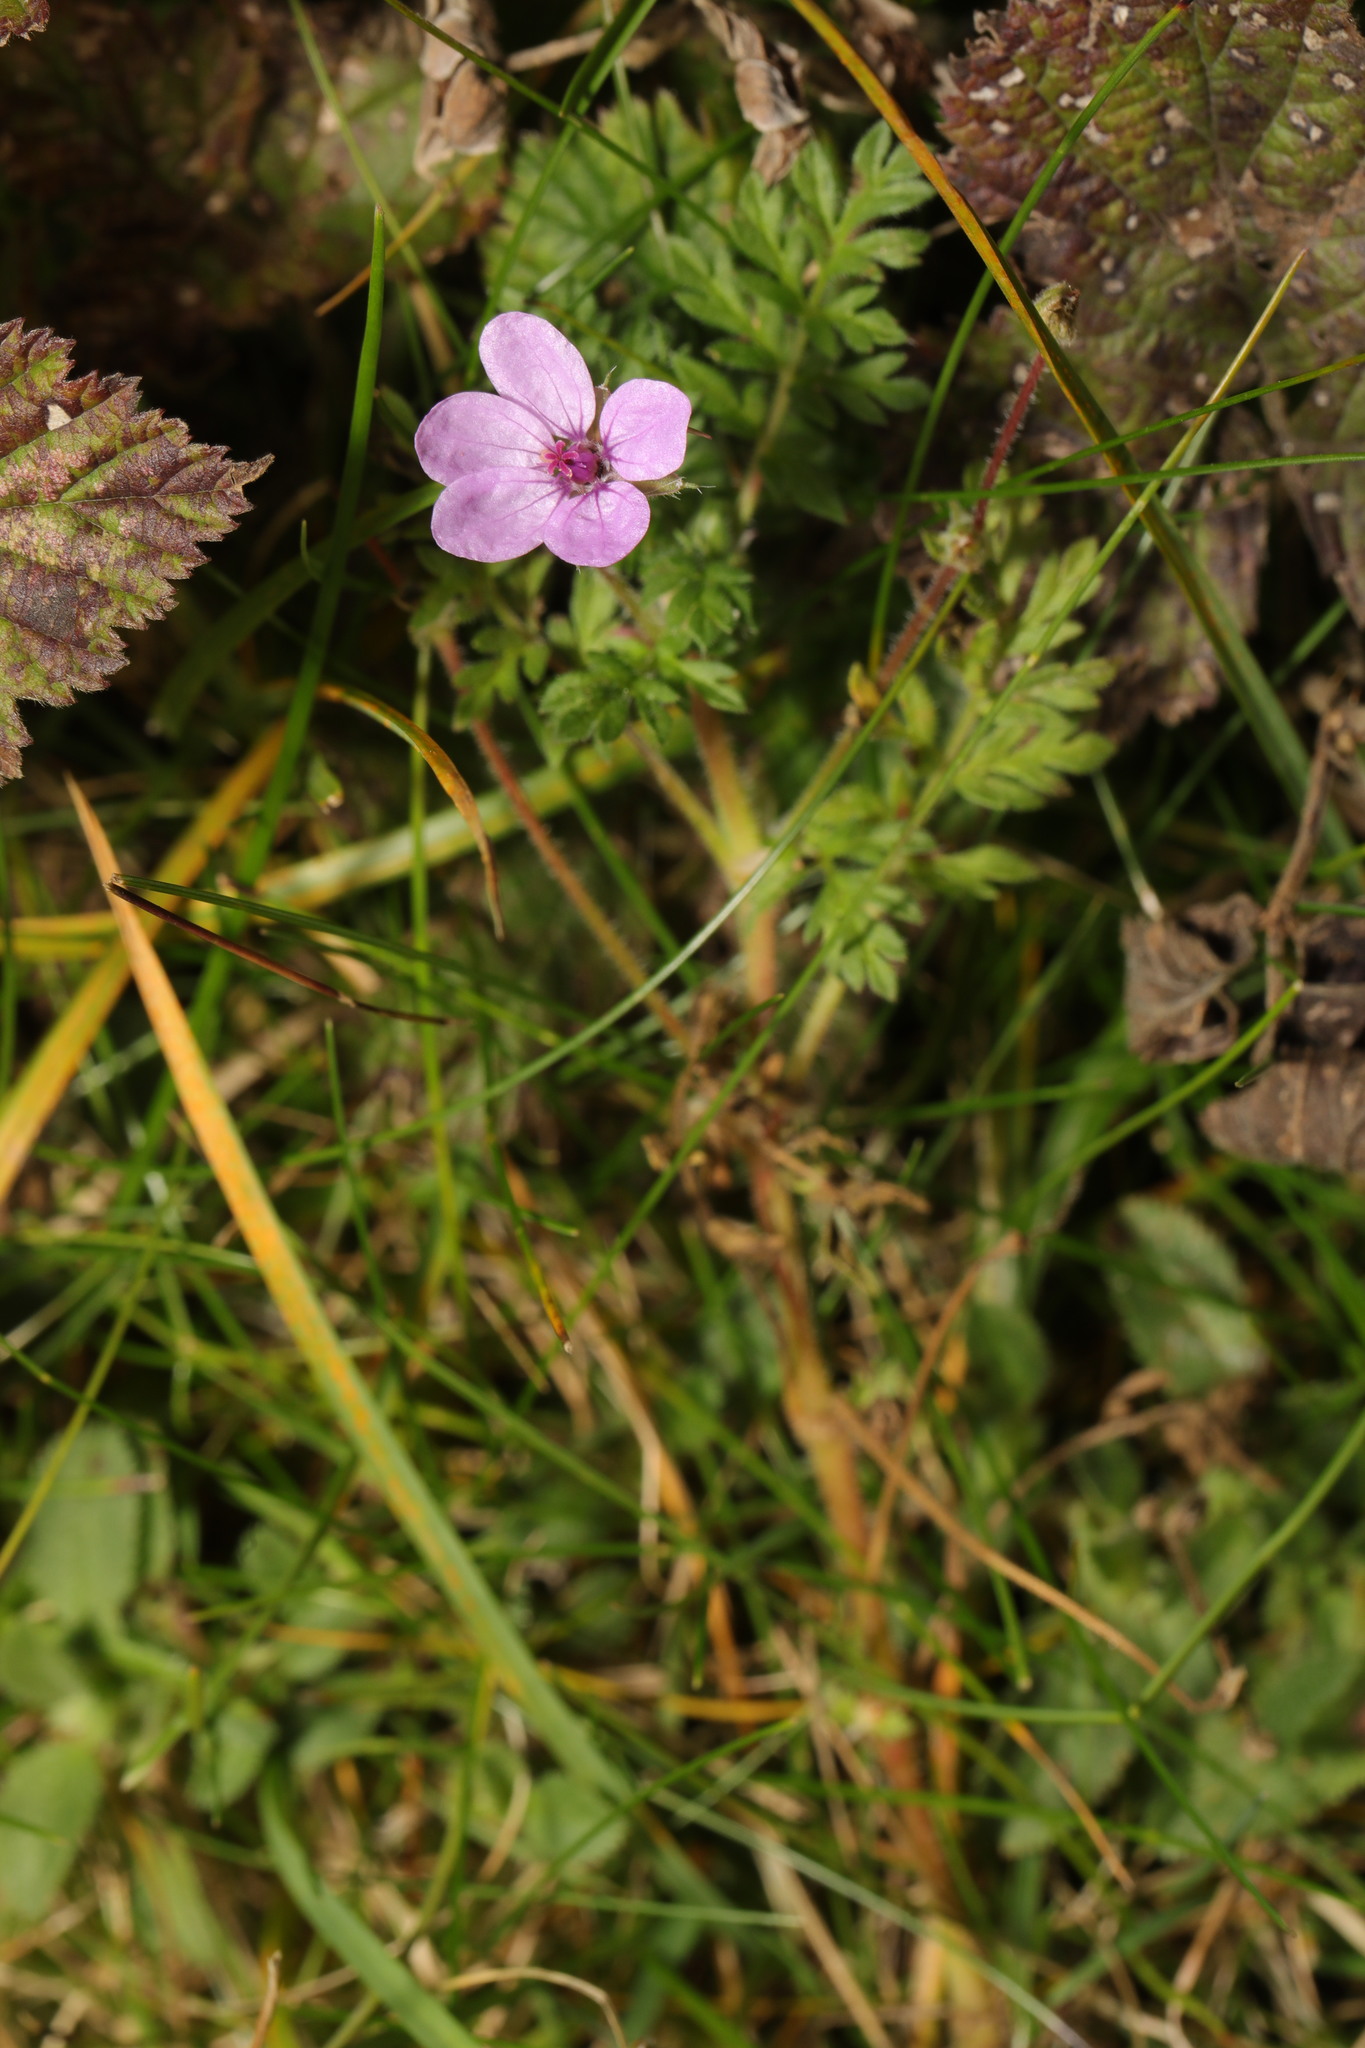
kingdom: Plantae
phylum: Tracheophyta
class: Magnoliopsida
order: Geraniales
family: Geraniaceae
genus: Erodium
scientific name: Erodium cicutarium
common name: Common stork's-bill
